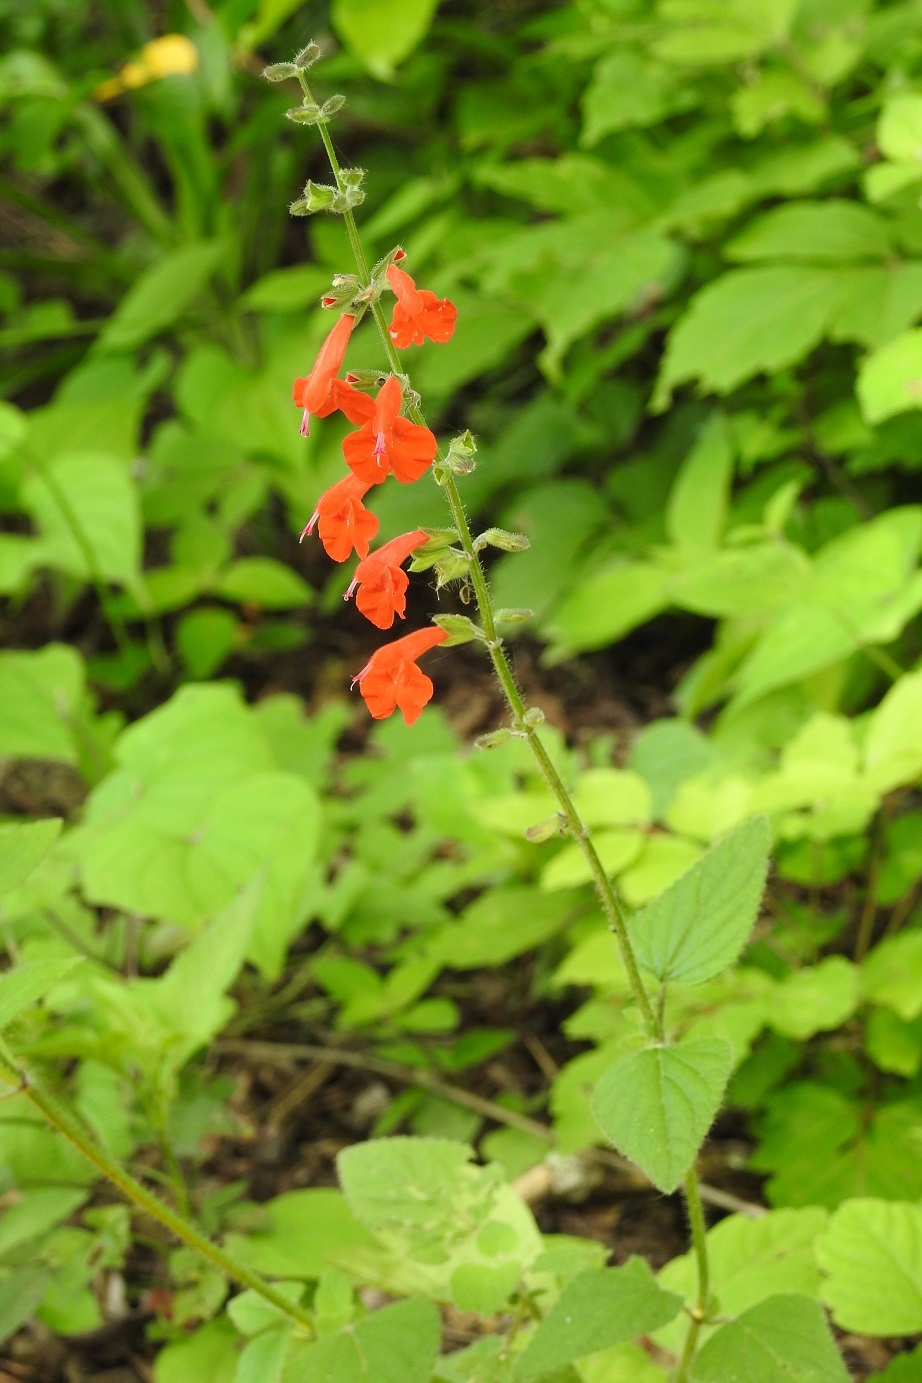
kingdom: Plantae
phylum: Tracheophyta
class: Magnoliopsida
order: Lamiales
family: Lamiaceae
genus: Salvia
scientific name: Salvia coccinea
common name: Blood sage
